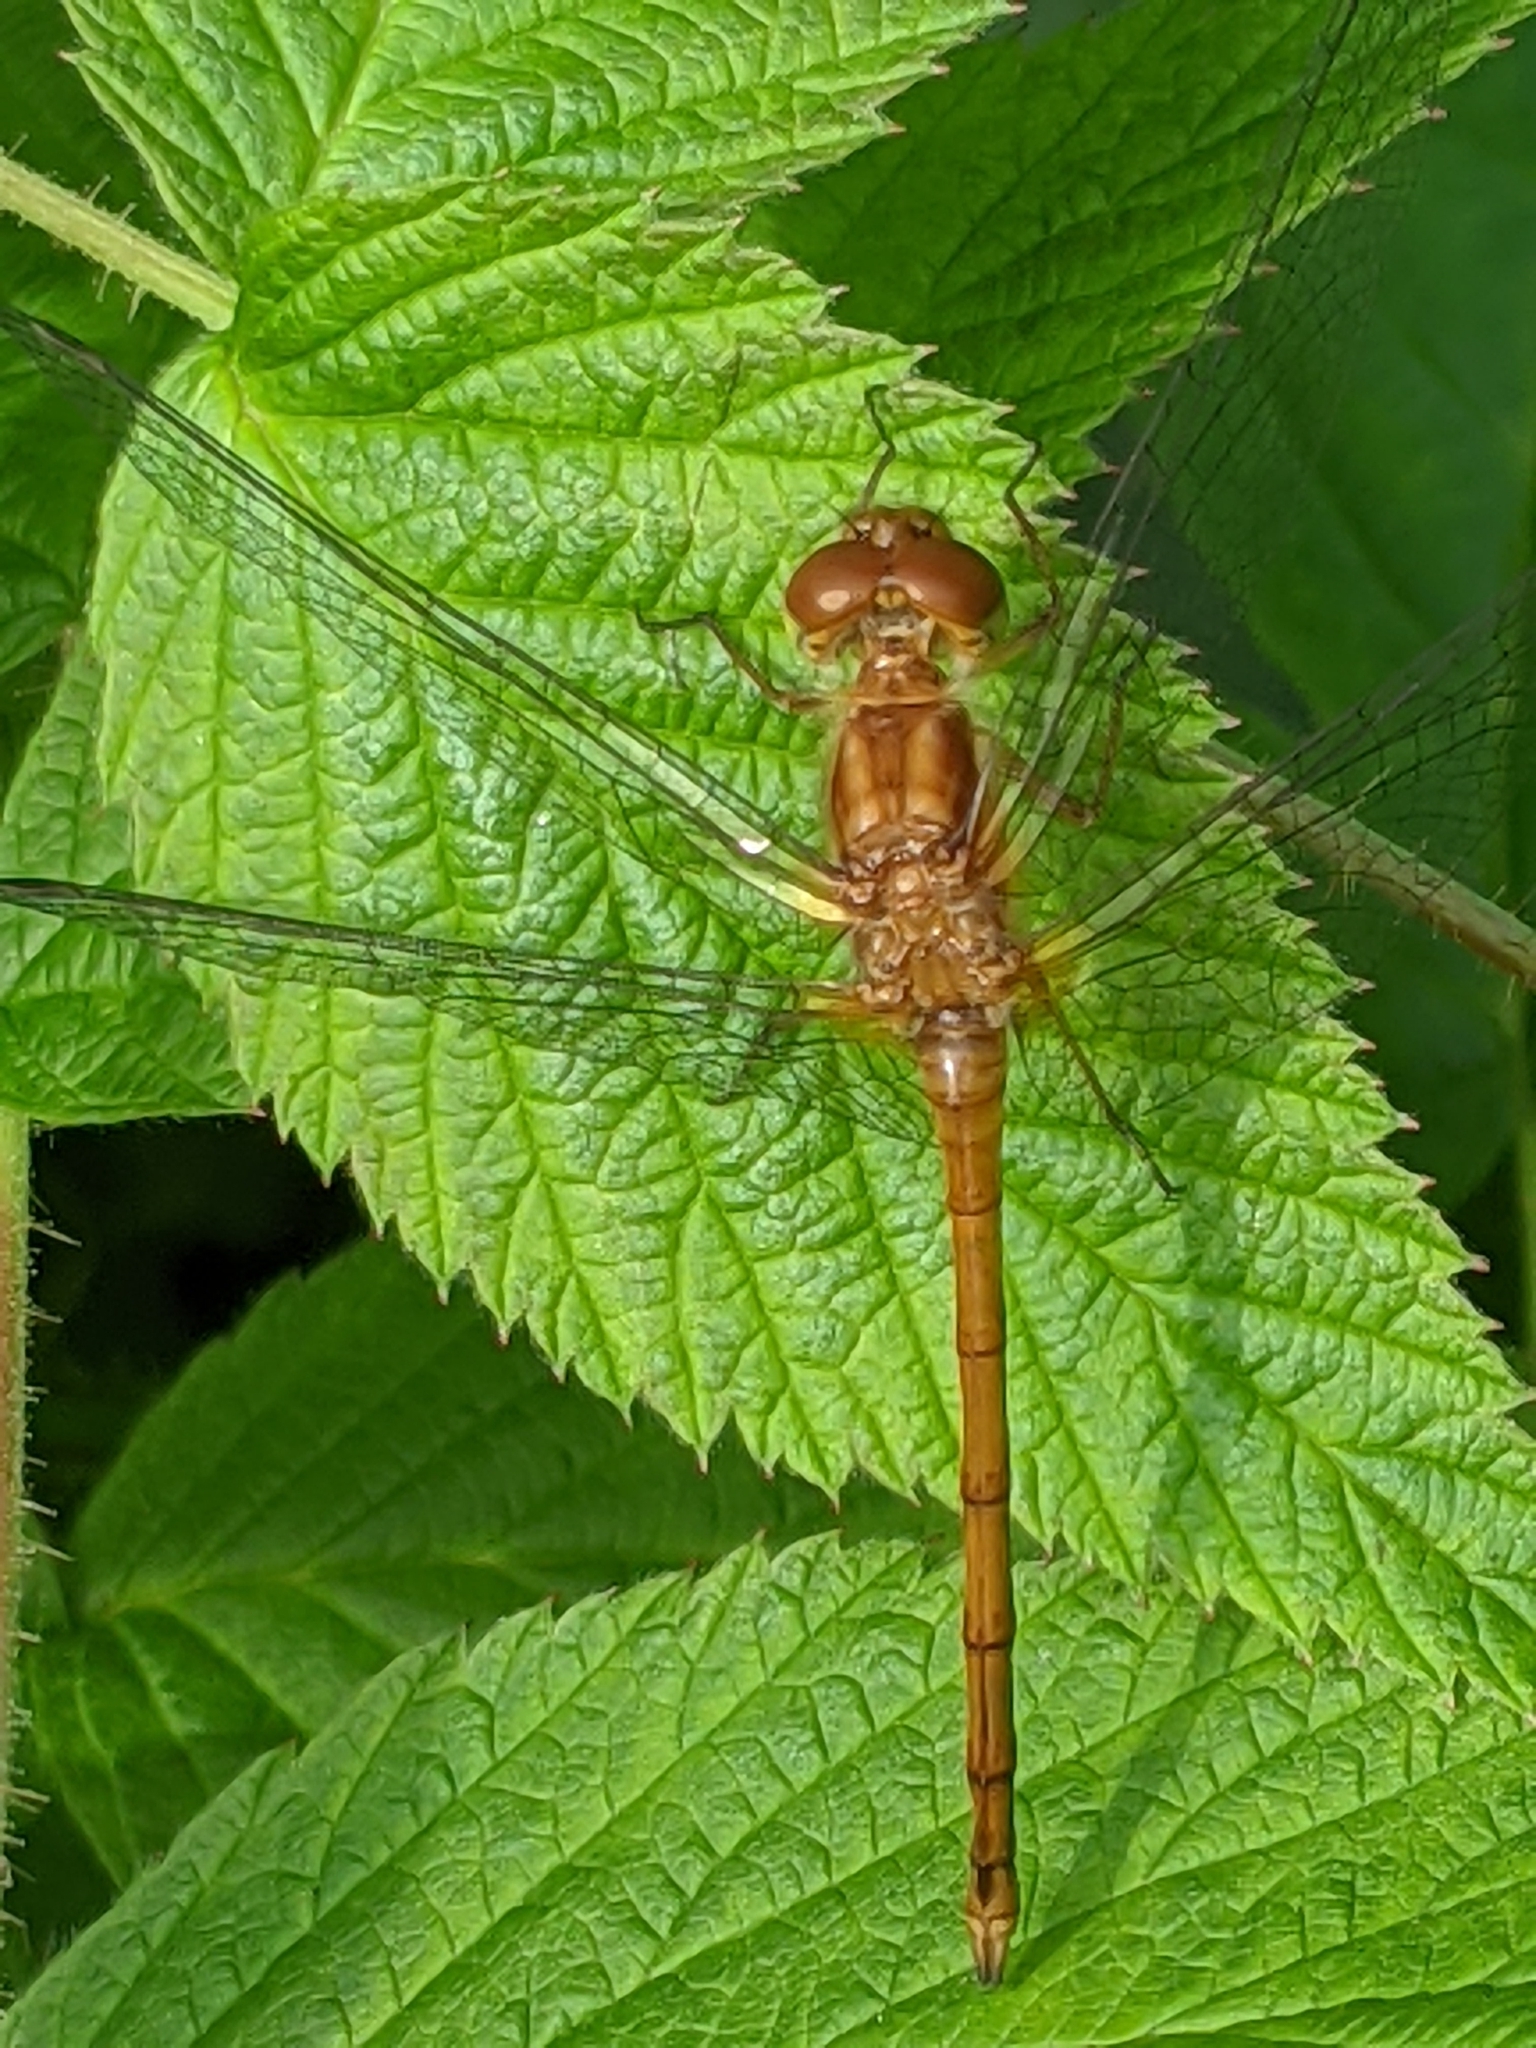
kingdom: Animalia
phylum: Arthropoda
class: Insecta
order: Odonata
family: Libellulidae
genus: Sympetrum
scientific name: Sympetrum vicinum
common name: Autumn meadowhawk
